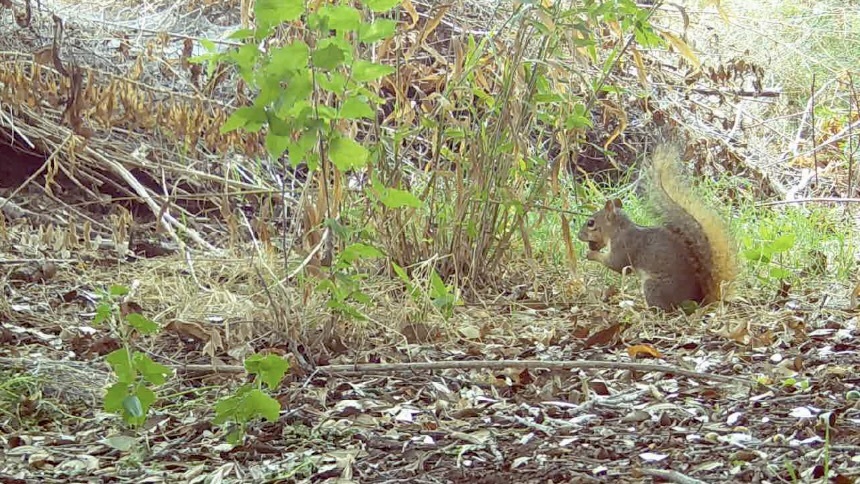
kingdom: Animalia
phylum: Chordata
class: Mammalia
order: Rodentia
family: Sciuridae
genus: Sciurus
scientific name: Sciurus niger
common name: Fox squirrel
